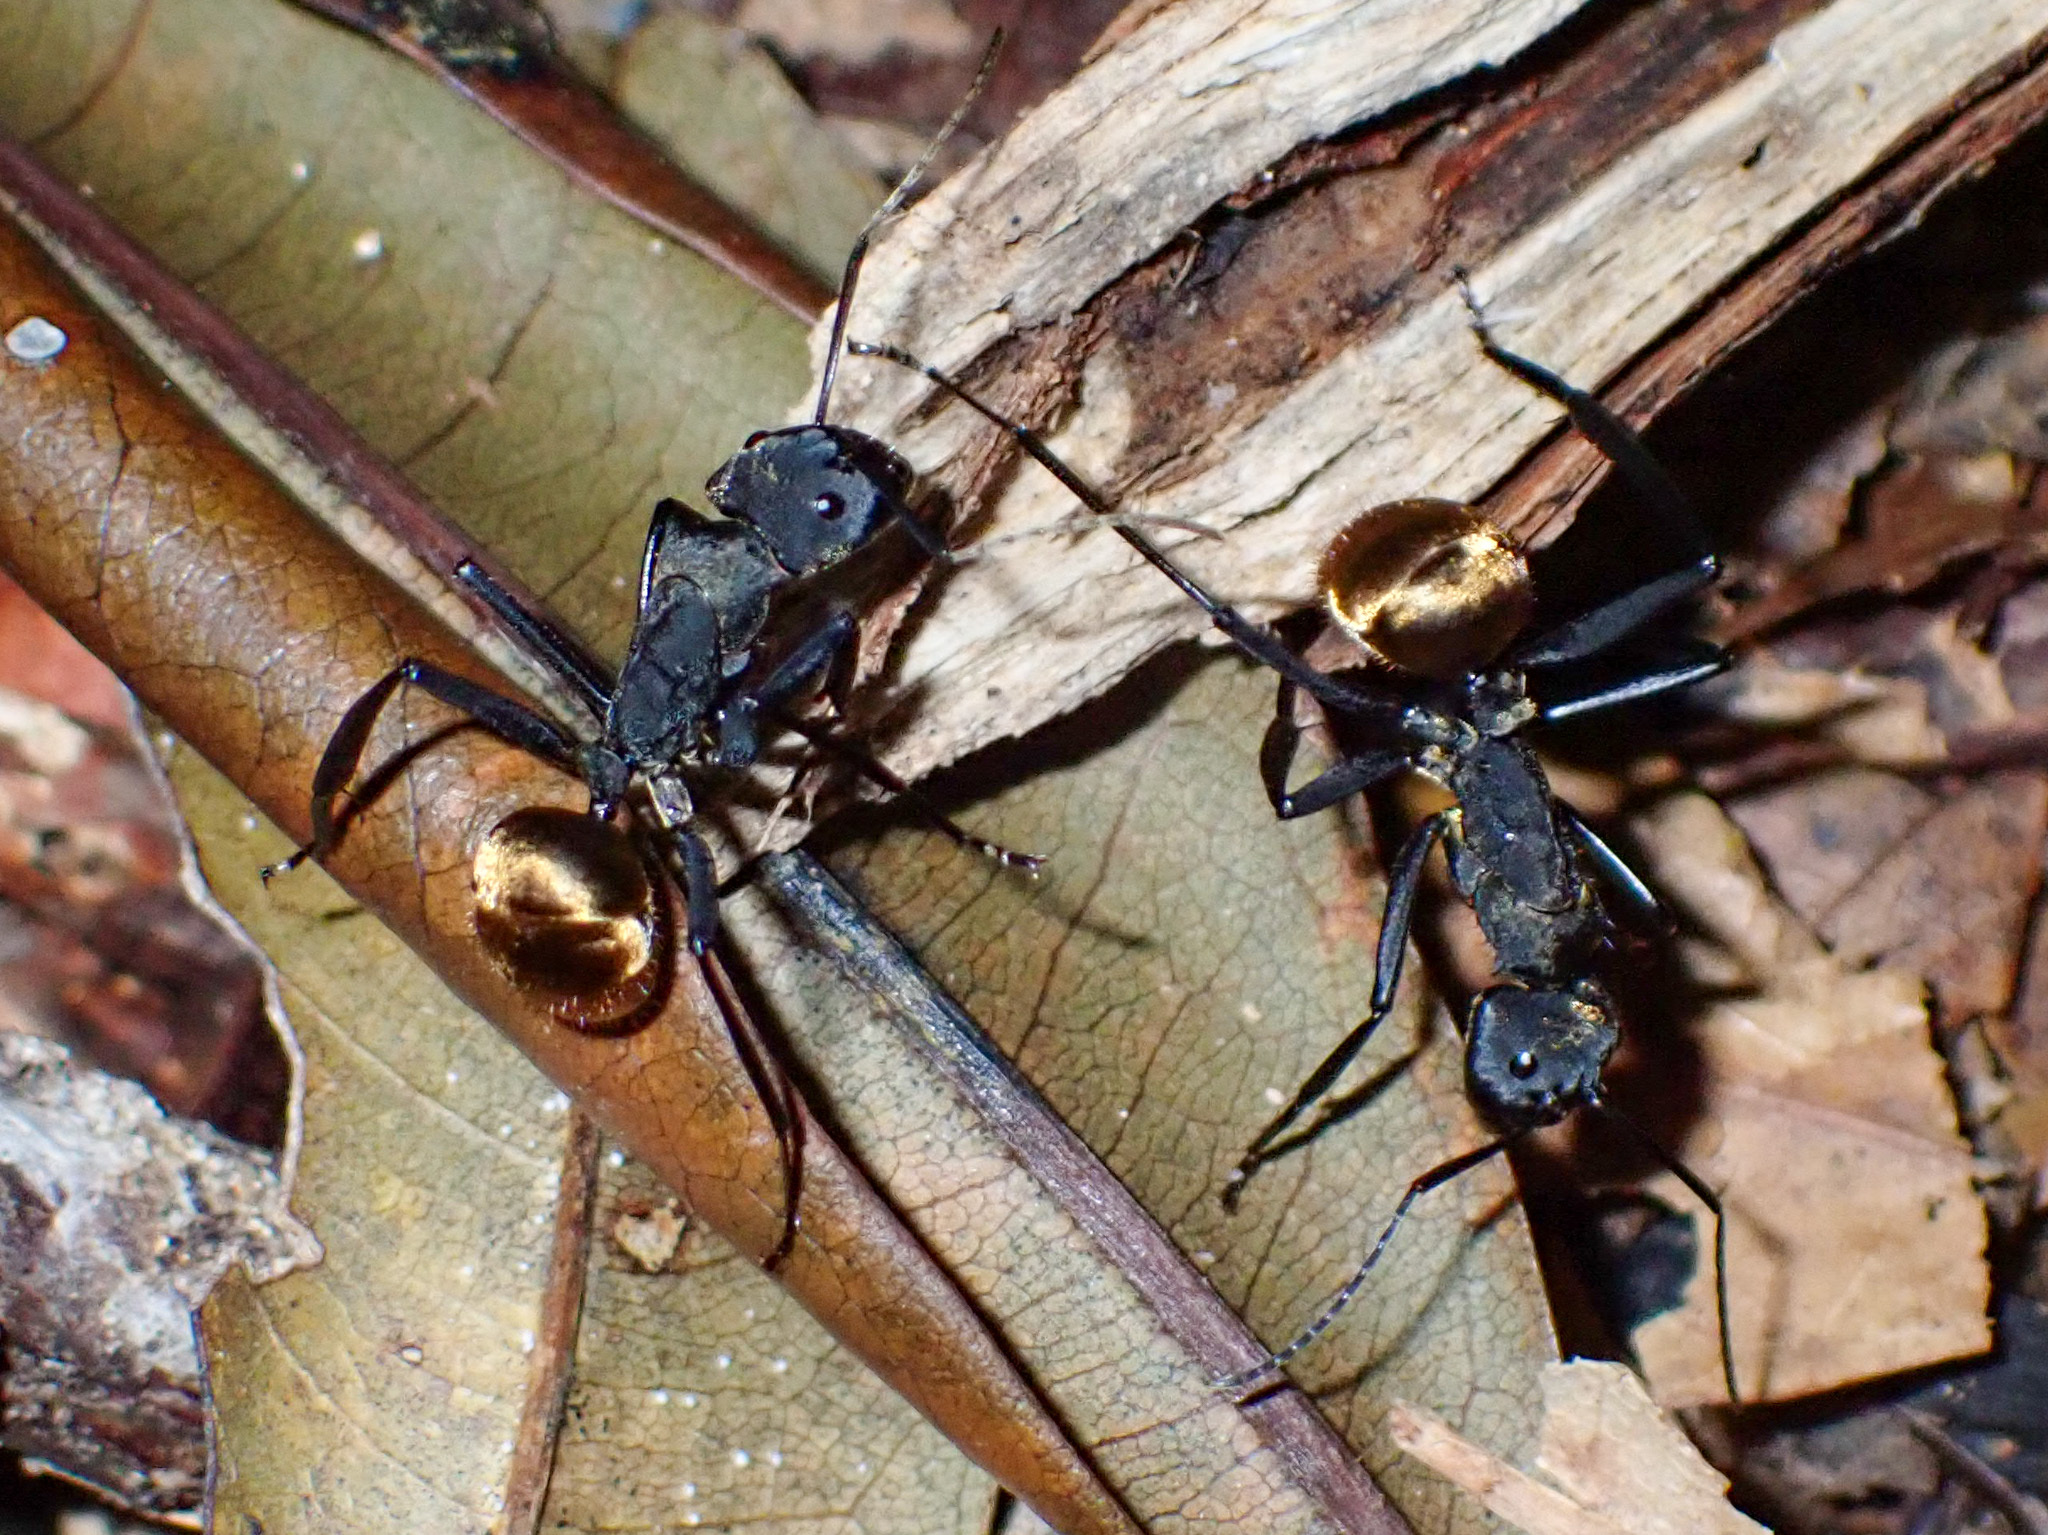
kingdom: Animalia
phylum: Arthropoda
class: Insecta
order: Hymenoptera
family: Formicidae
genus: Camponotus
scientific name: Camponotus sericeiventris
